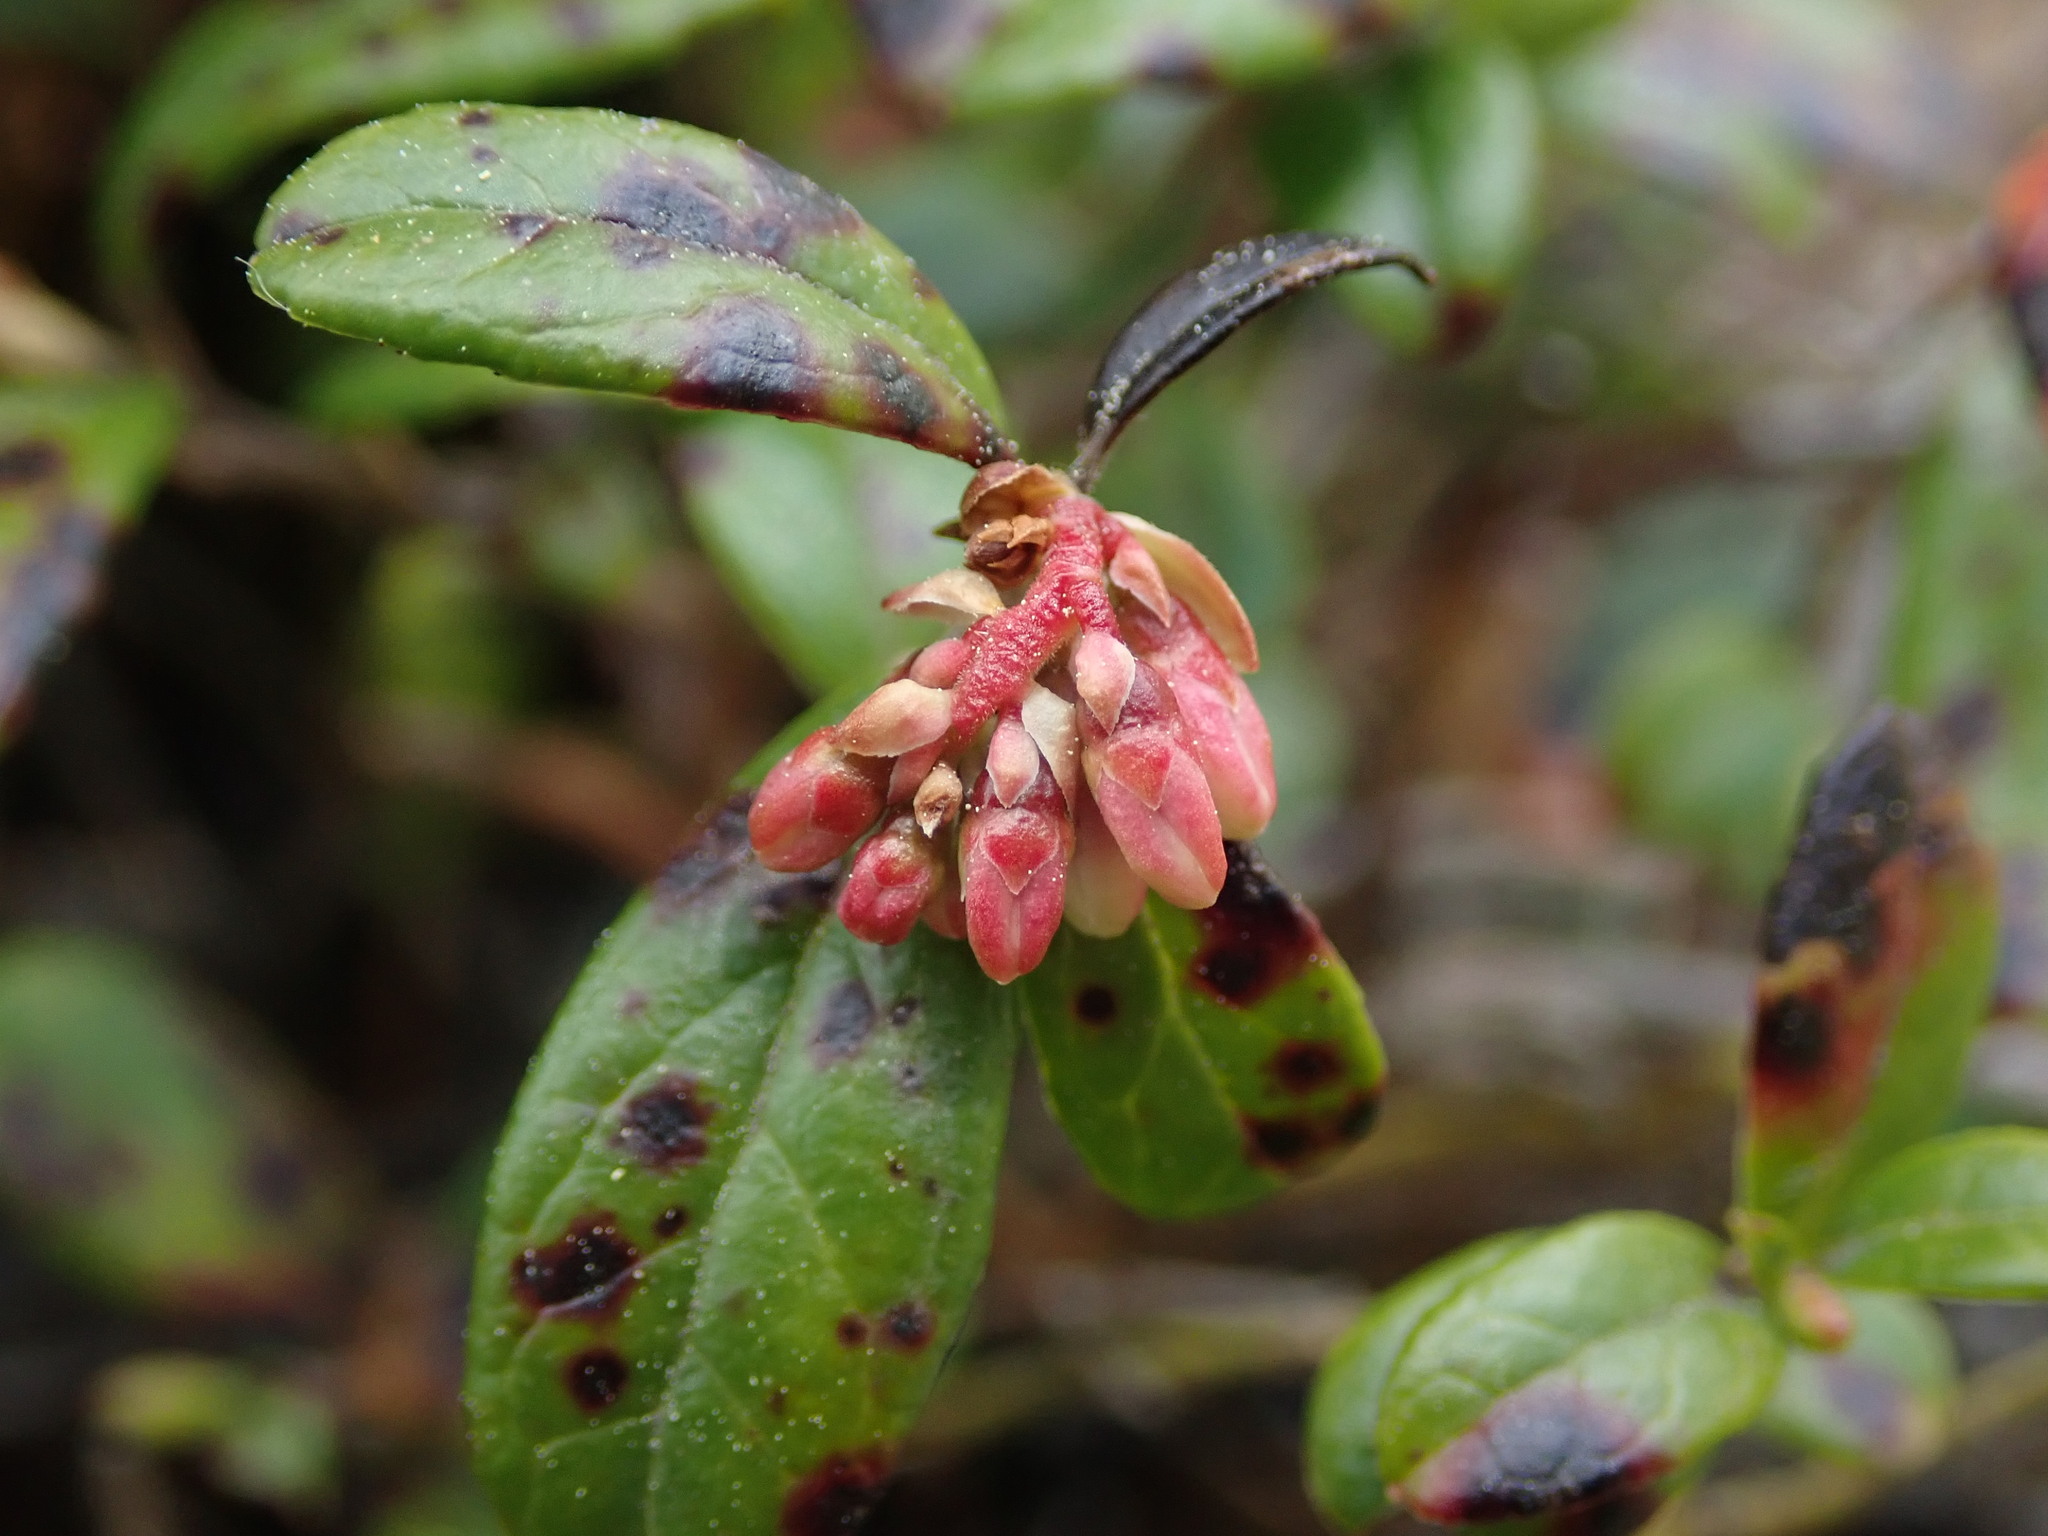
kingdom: Plantae
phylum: Tracheophyta
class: Magnoliopsida
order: Ericales
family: Ericaceae
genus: Vaccinium
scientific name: Vaccinium vitis-idaea
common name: Cowberry
